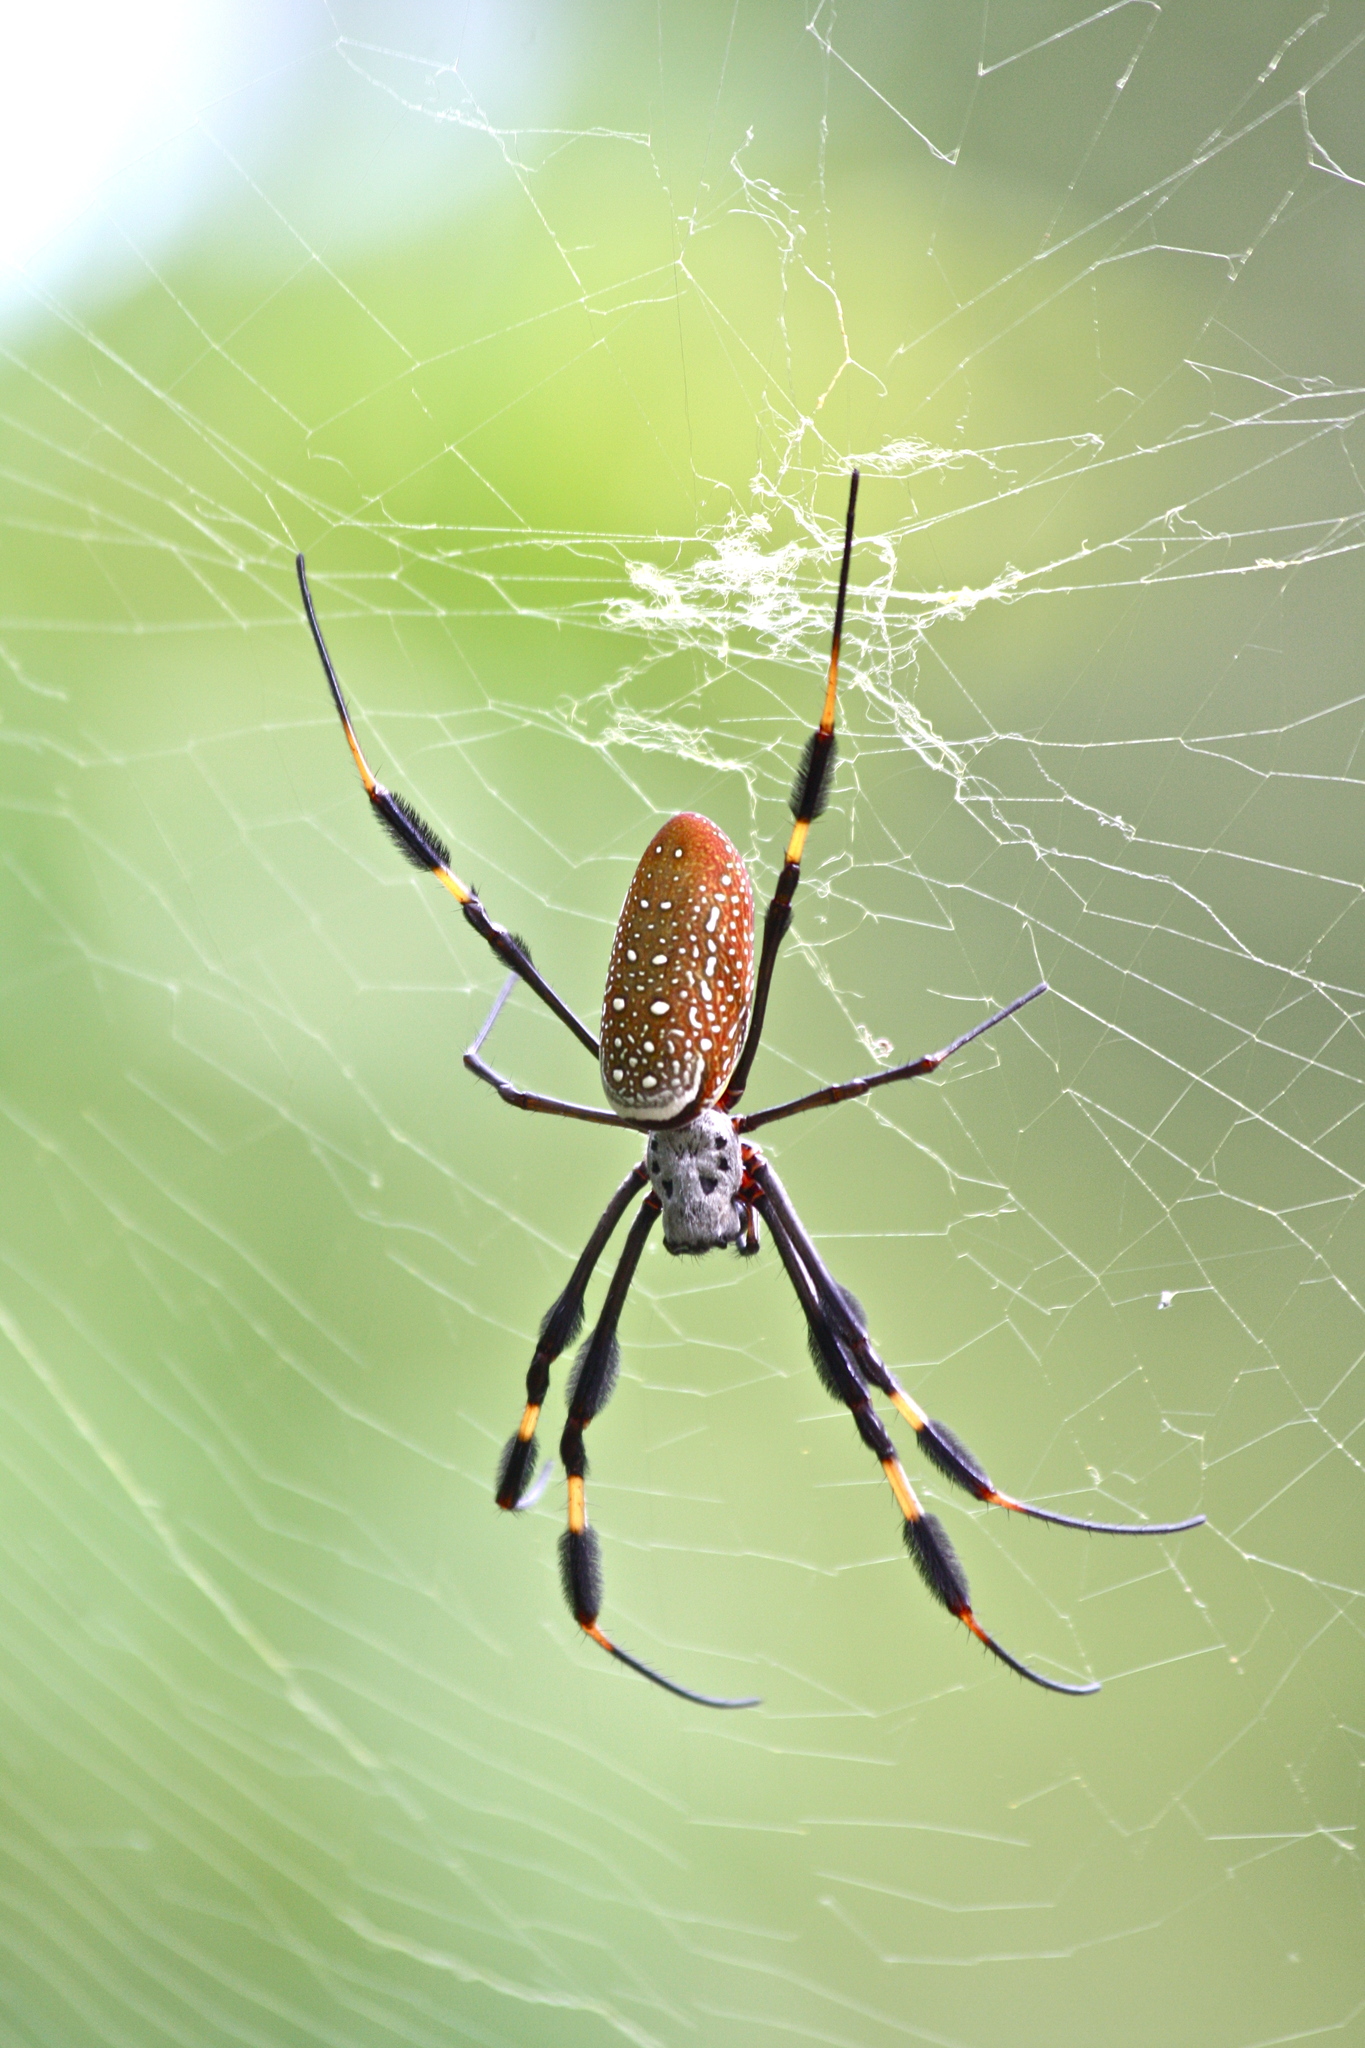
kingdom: Animalia
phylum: Arthropoda
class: Arachnida
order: Araneae
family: Araneidae
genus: Trichonephila
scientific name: Trichonephila clavipes
